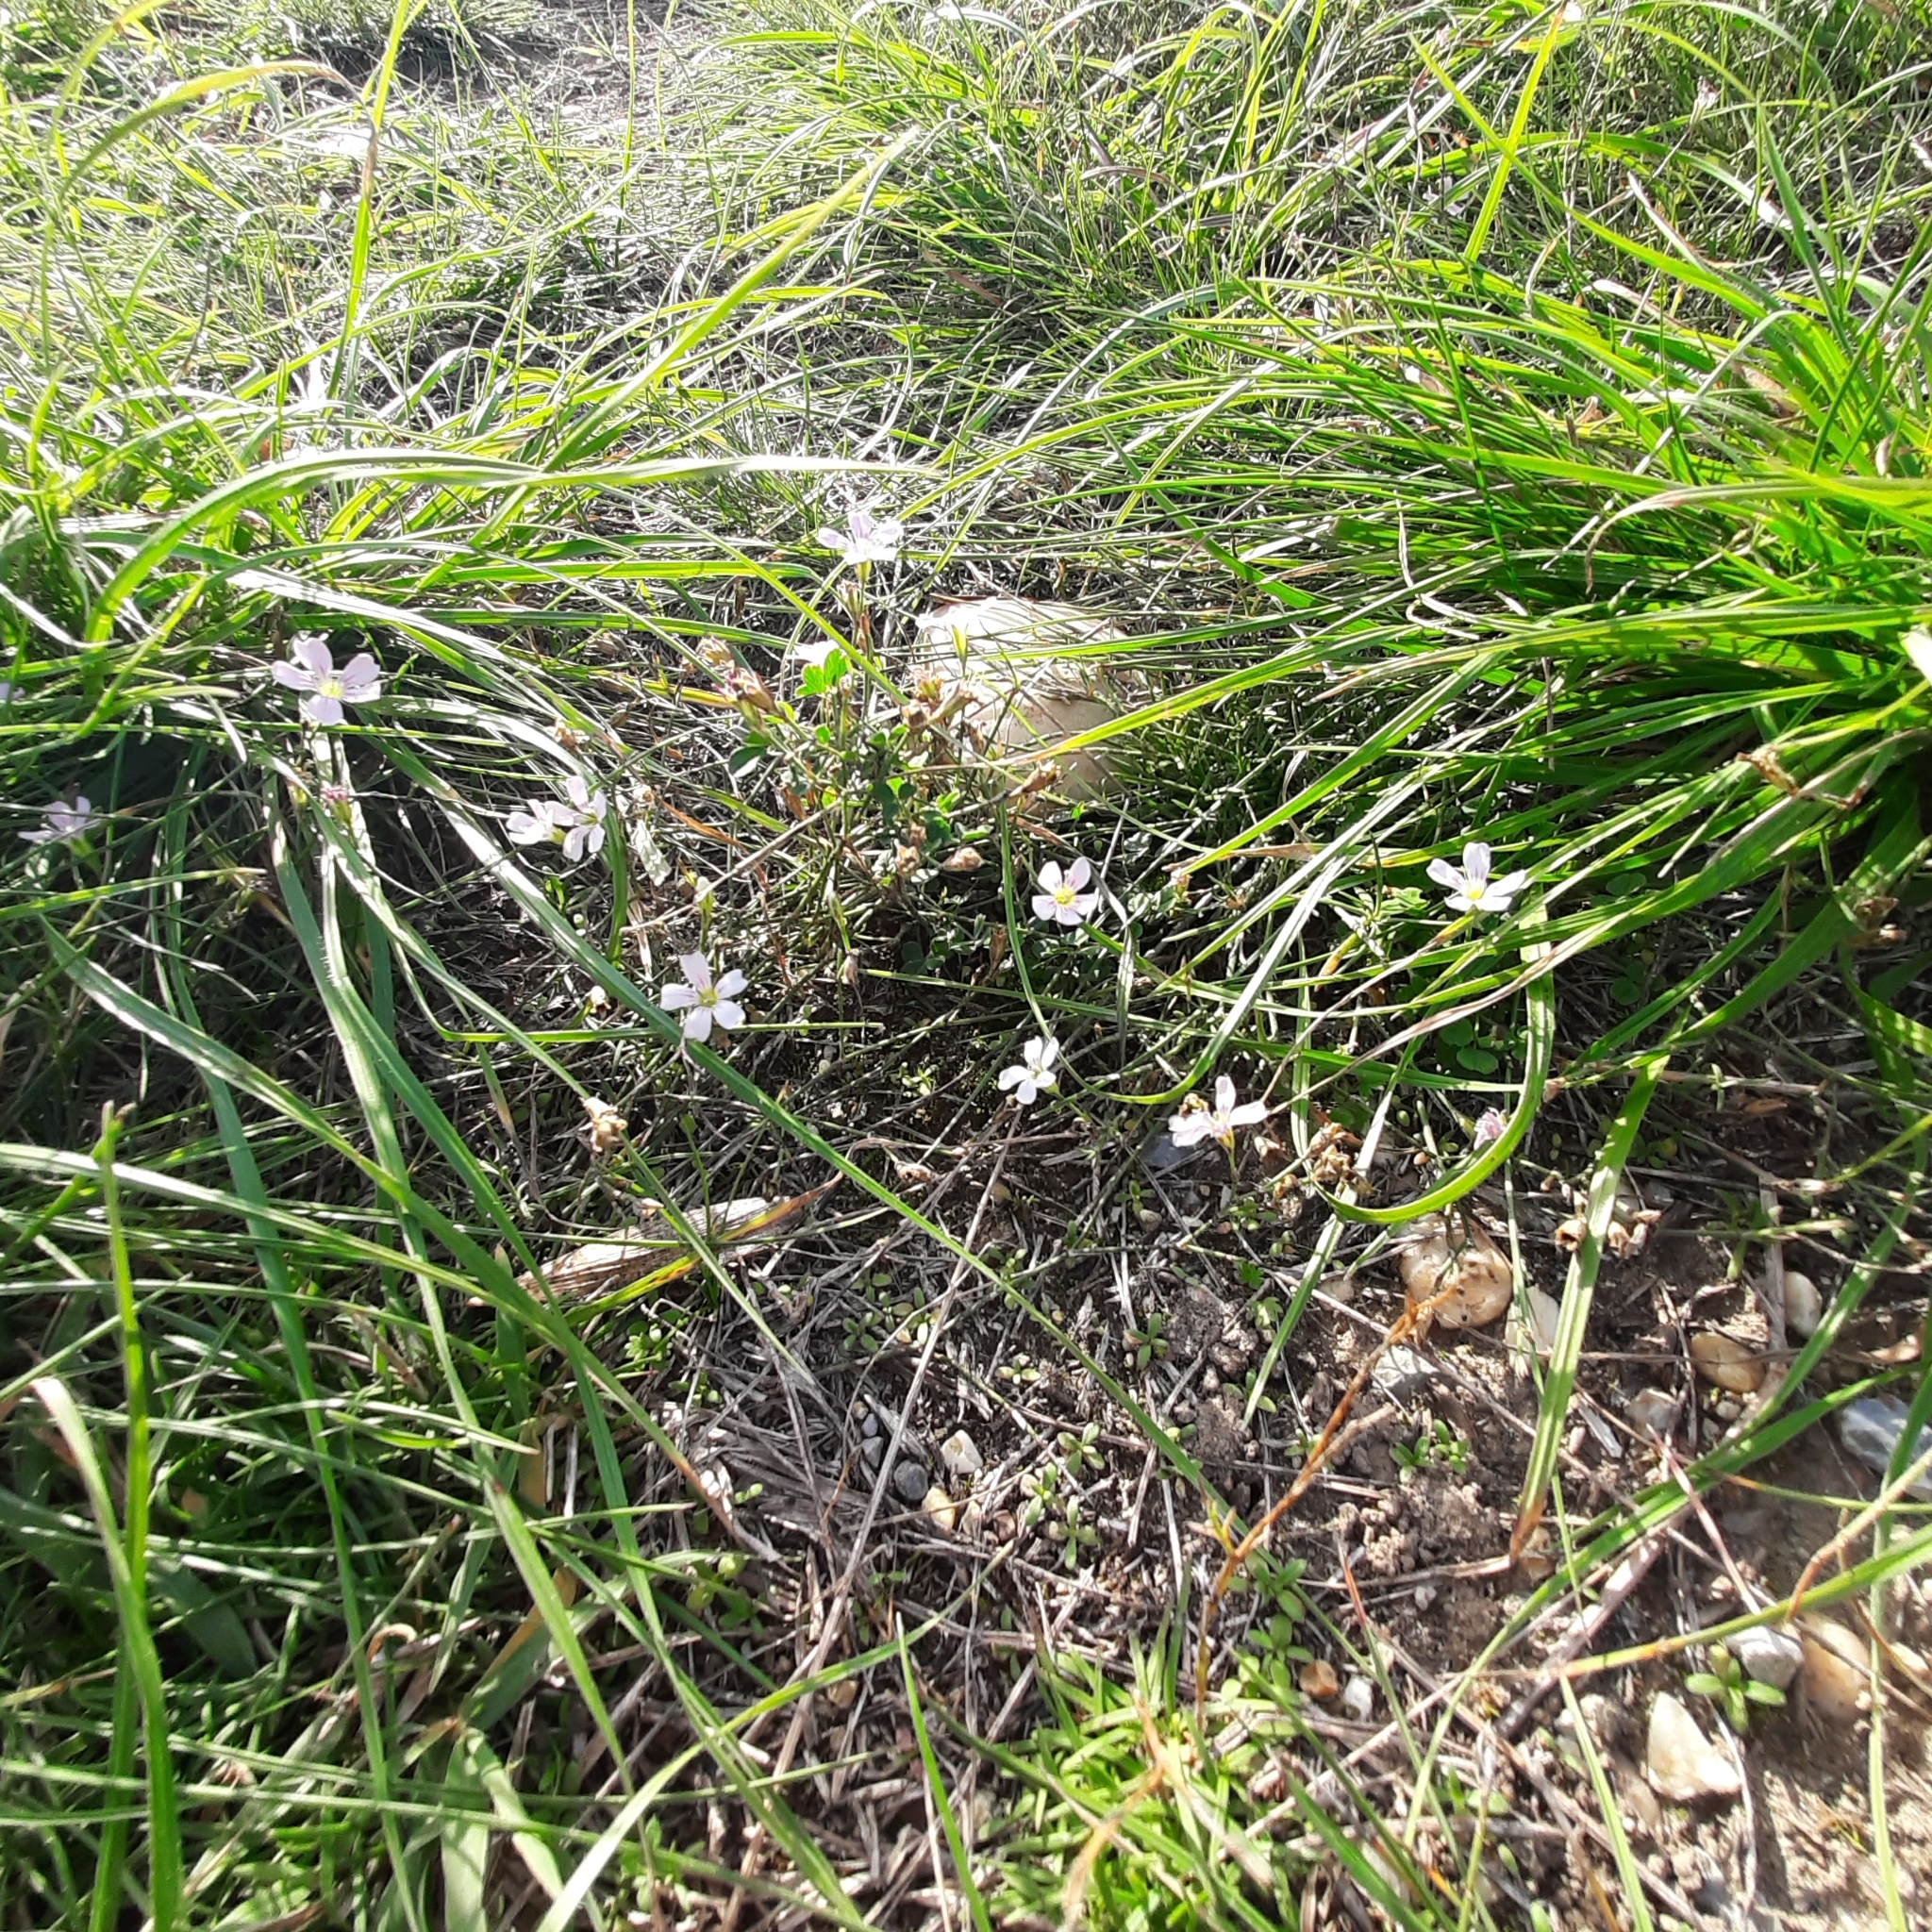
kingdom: Plantae
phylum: Tracheophyta
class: Magnoliopsida
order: Caryophyllales
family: Caryophyllaceae
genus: Petrorhagia
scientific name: Petrorhagia saxifraga
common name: Tunicflower
